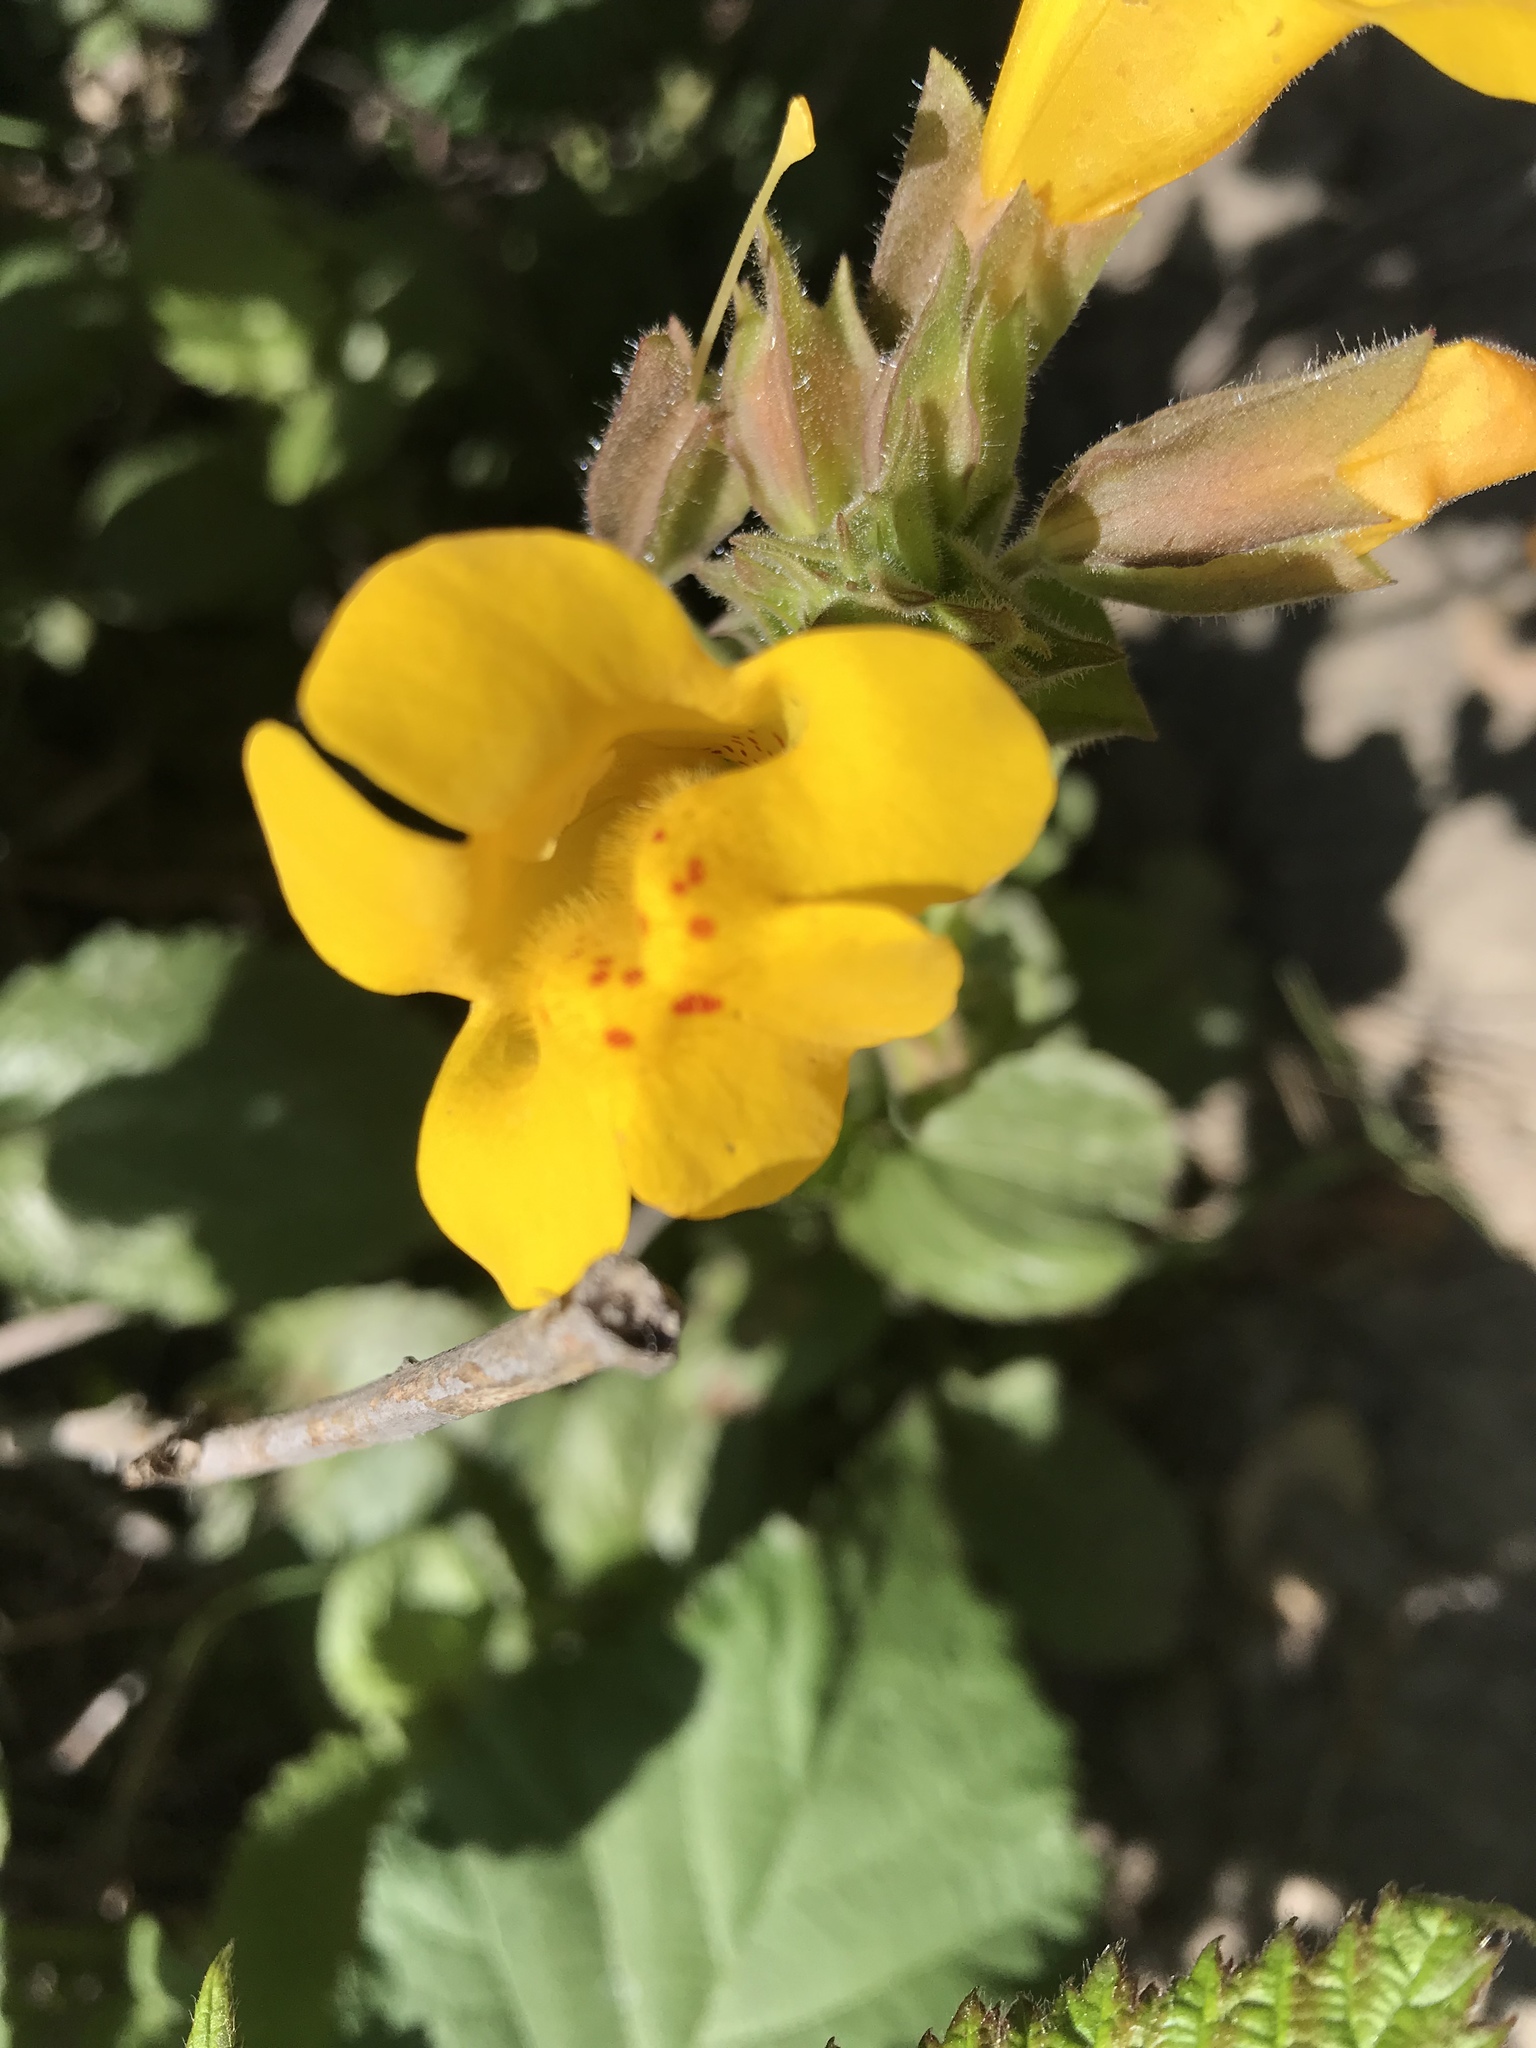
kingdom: Plantae
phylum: Tracheophyta
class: Magnoliopsida
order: Lamiales
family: Phrymaceae
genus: Erythranthe
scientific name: Erythranthe guttata
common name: Monkeyflower
